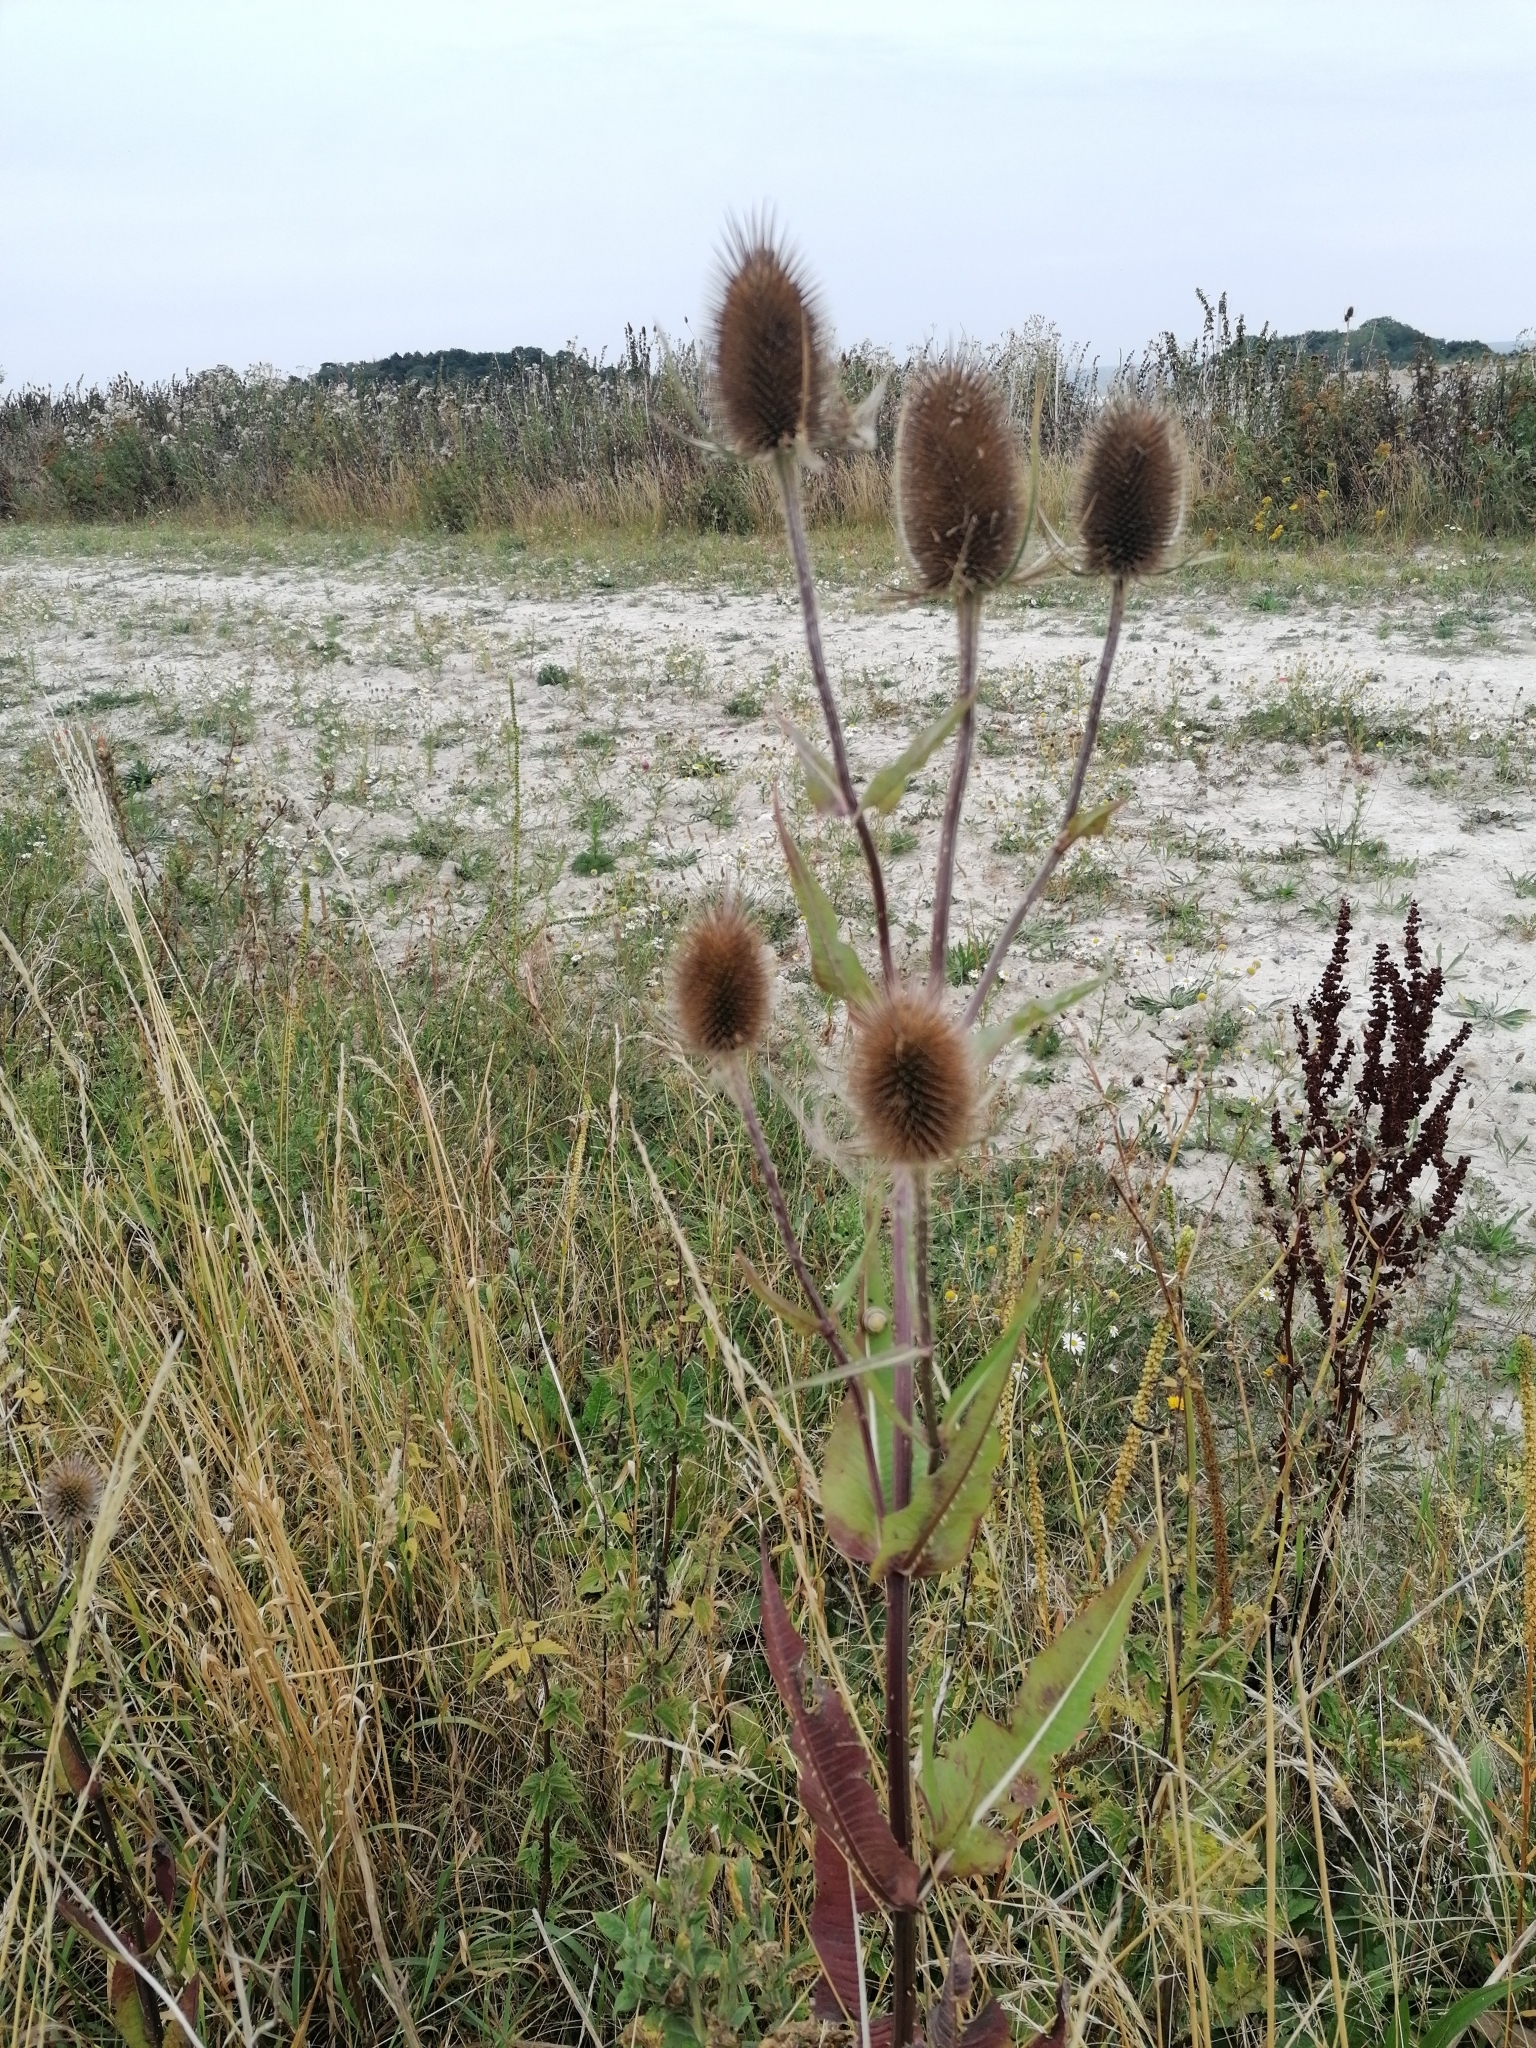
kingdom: Plantae
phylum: Tracheophyta
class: Magnoliopsida
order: Dipsacales
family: Caprifoliaceae
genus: Dipsacus
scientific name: Dipsacus fullonum
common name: Teasel
